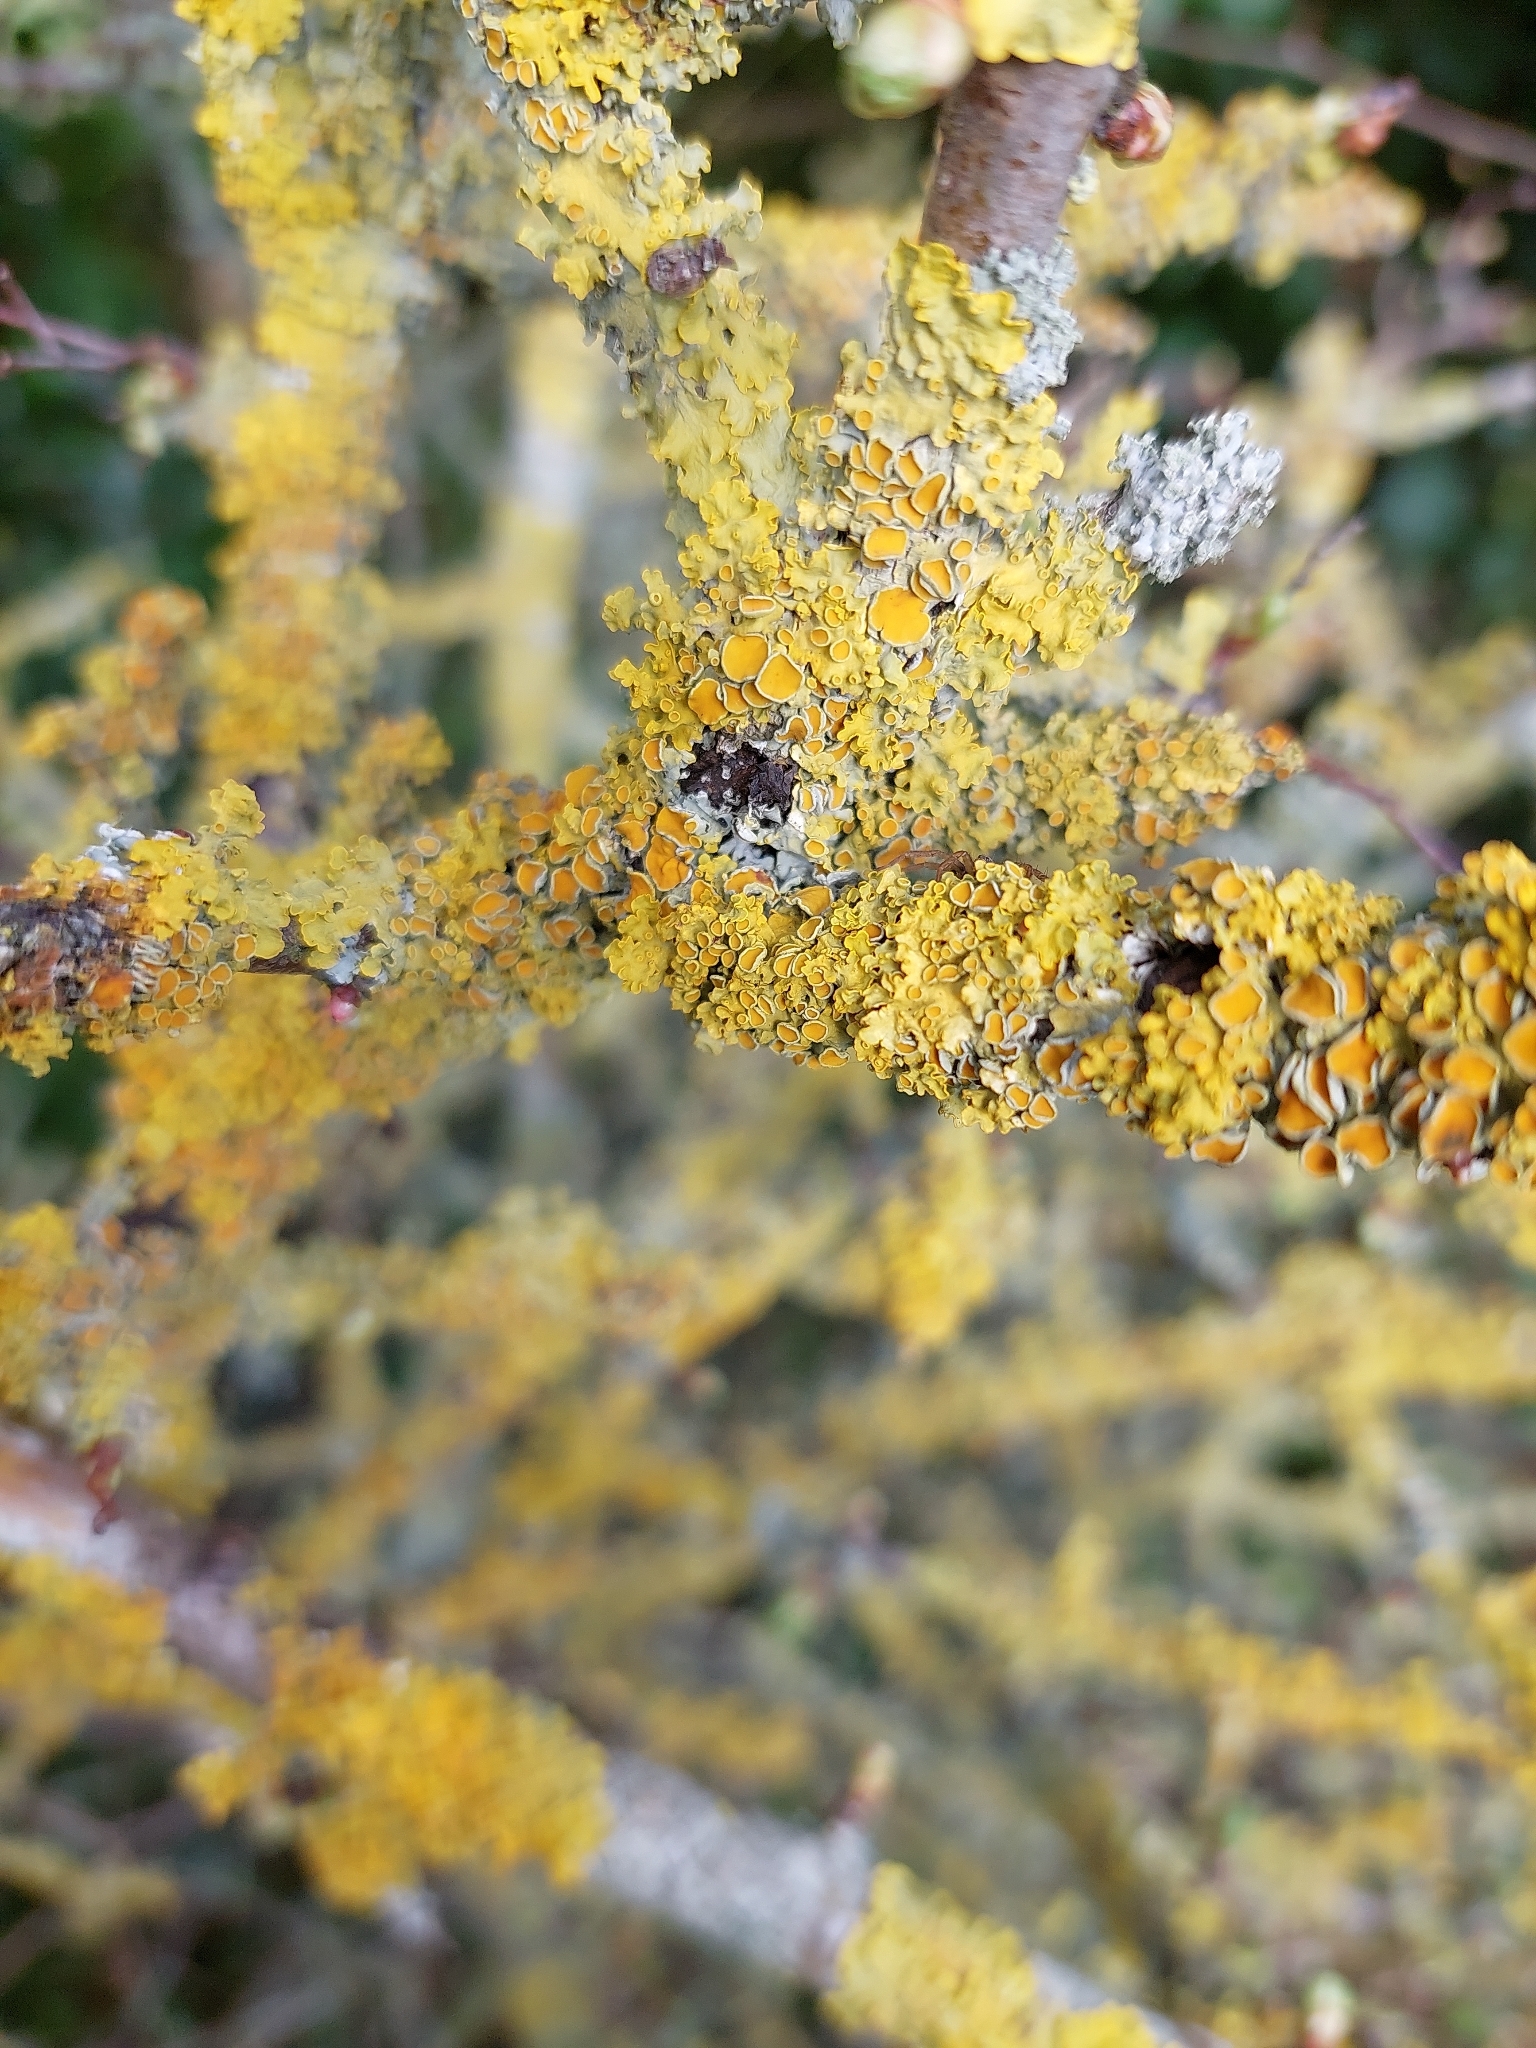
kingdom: Fungi
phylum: Ascomycota
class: Lecanoromycetes
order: Teloschistales
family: Teloschistaceae
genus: Xanthoria
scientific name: Xanthoria parietina
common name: Common orange lichen
